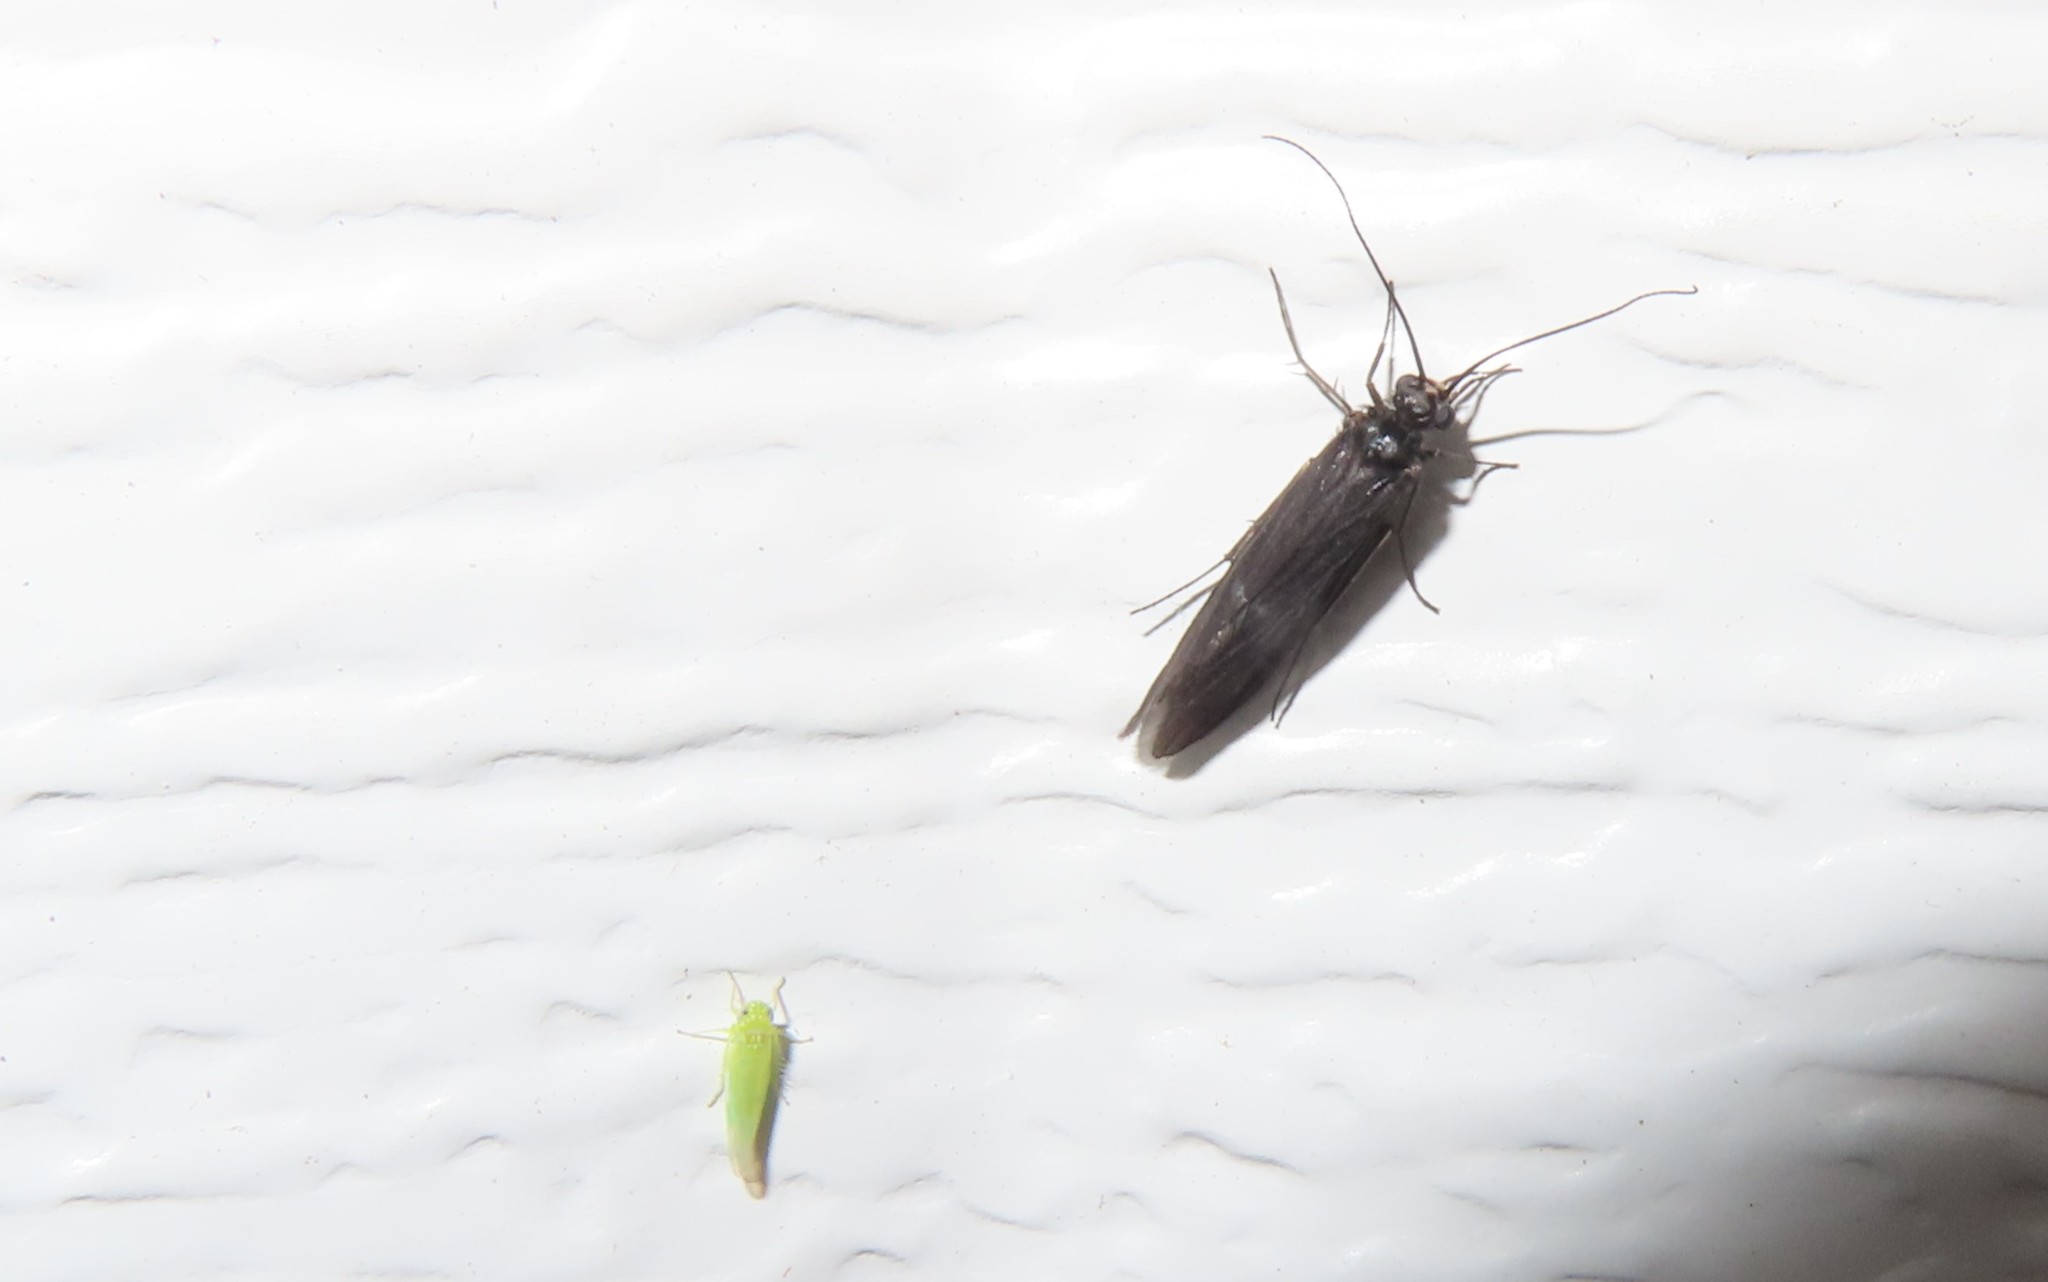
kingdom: Animalia
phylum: Arthropoda
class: Insecta
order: Hemiptera
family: Cicadellidae
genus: Empoasca
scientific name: Empoasca fabae
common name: Potato leafhopper
